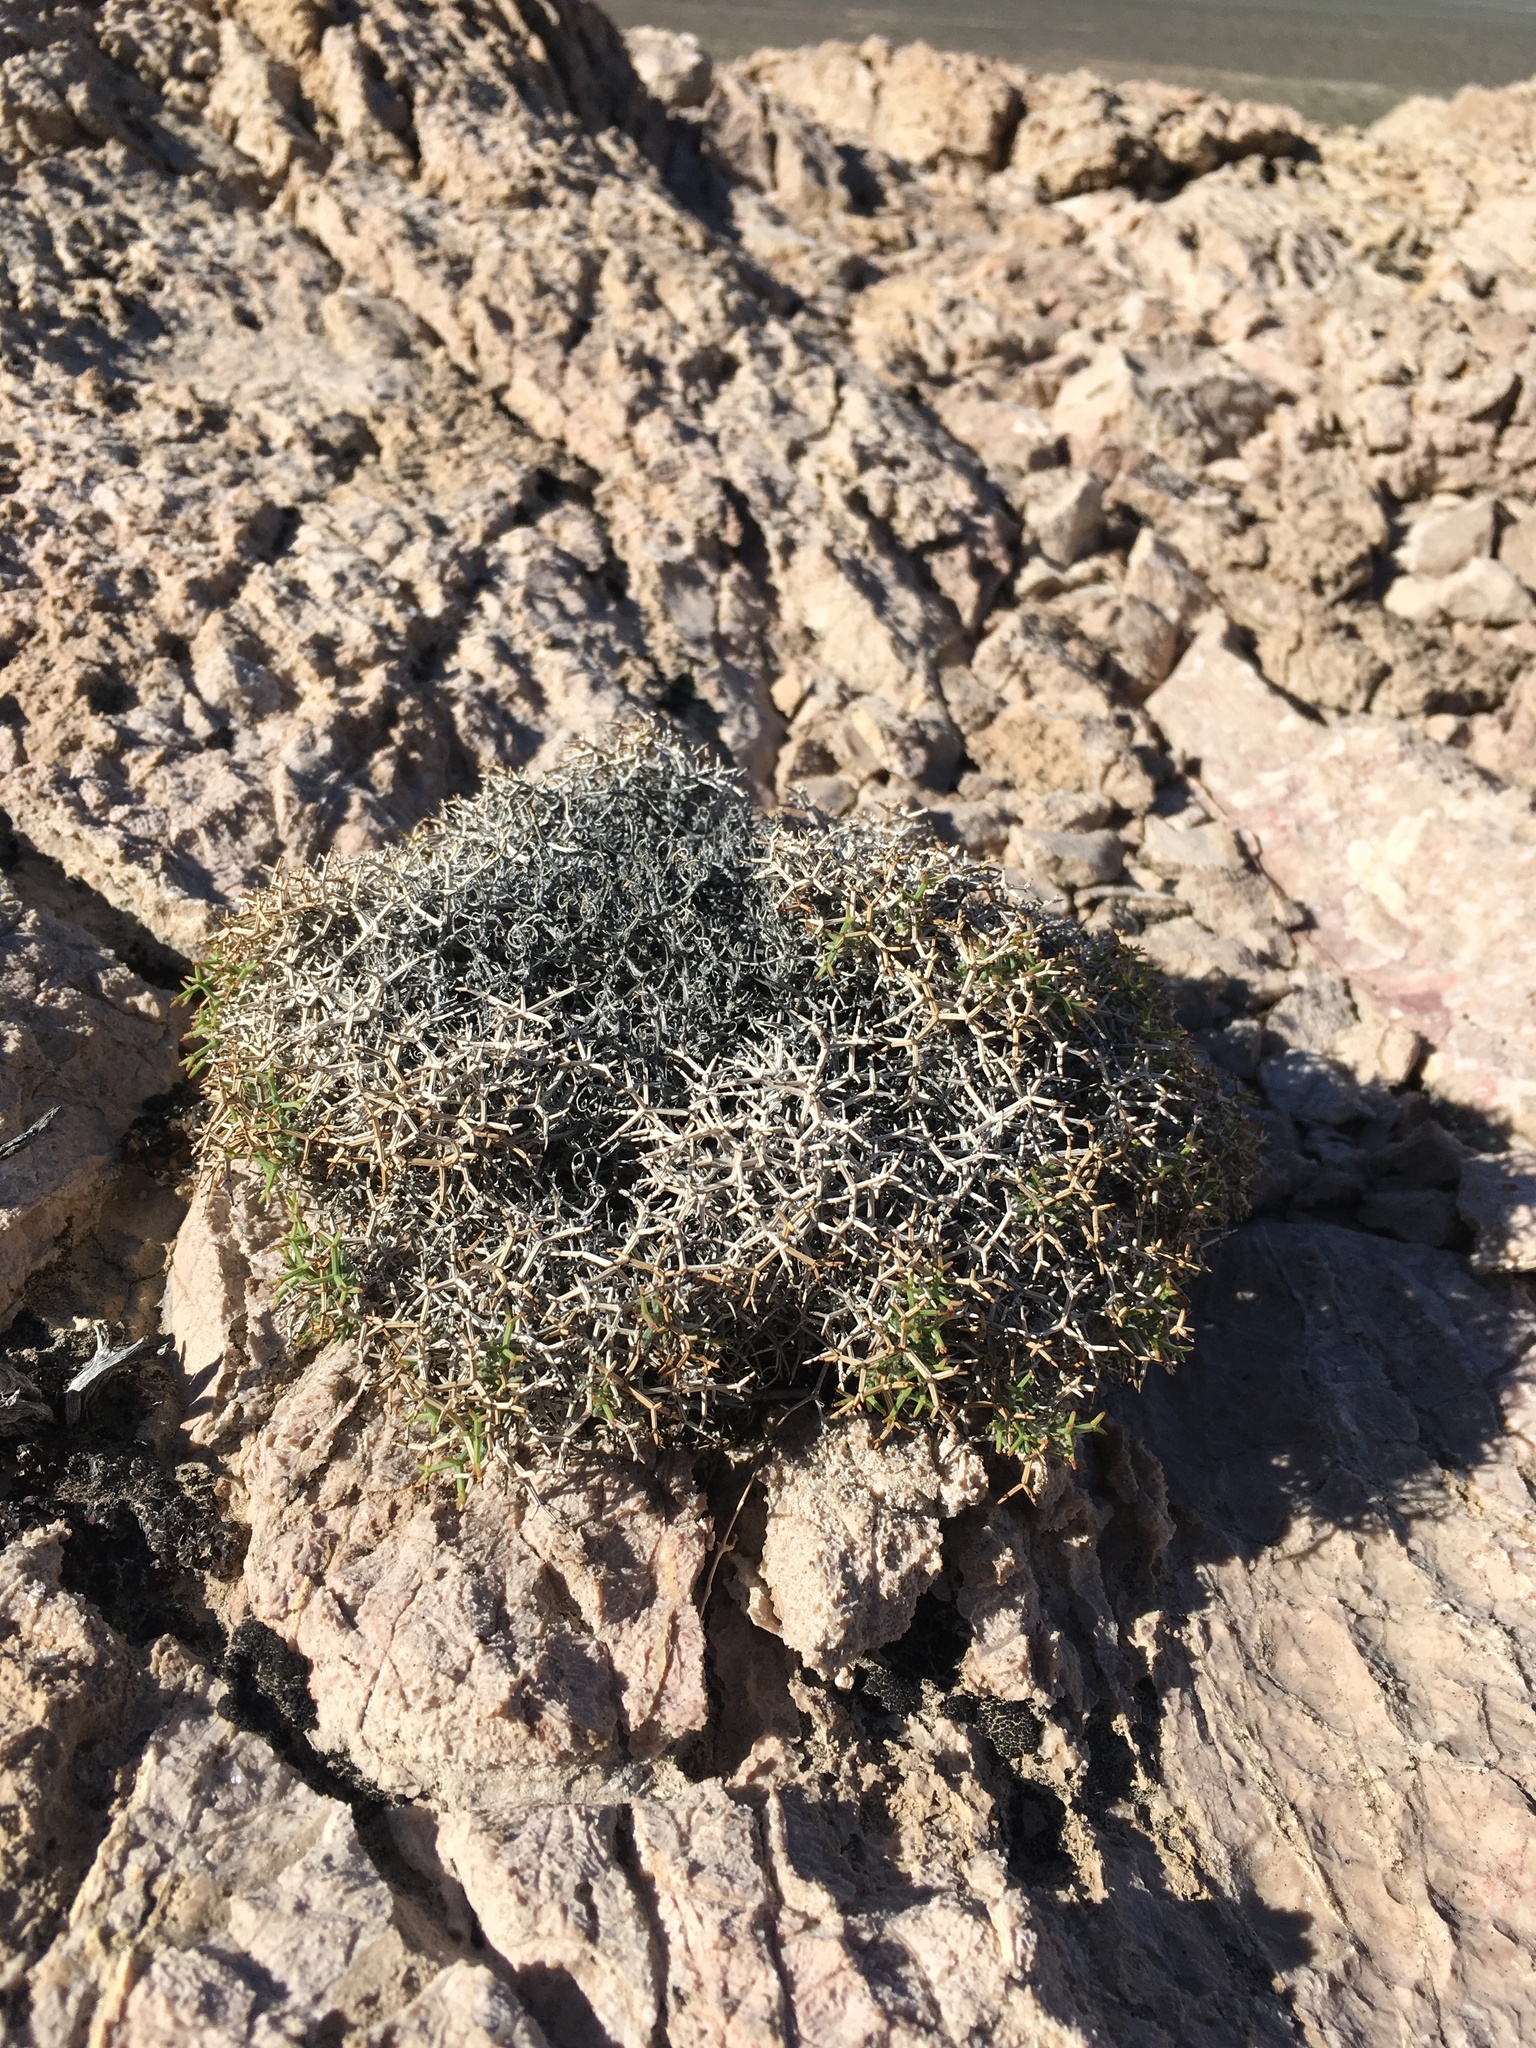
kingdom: Plantae
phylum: Tracheophyta
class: Magnoliopsida
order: Caryophyllales
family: Polygonaceae
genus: Eriogonum
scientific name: Eriogonum heermannii
